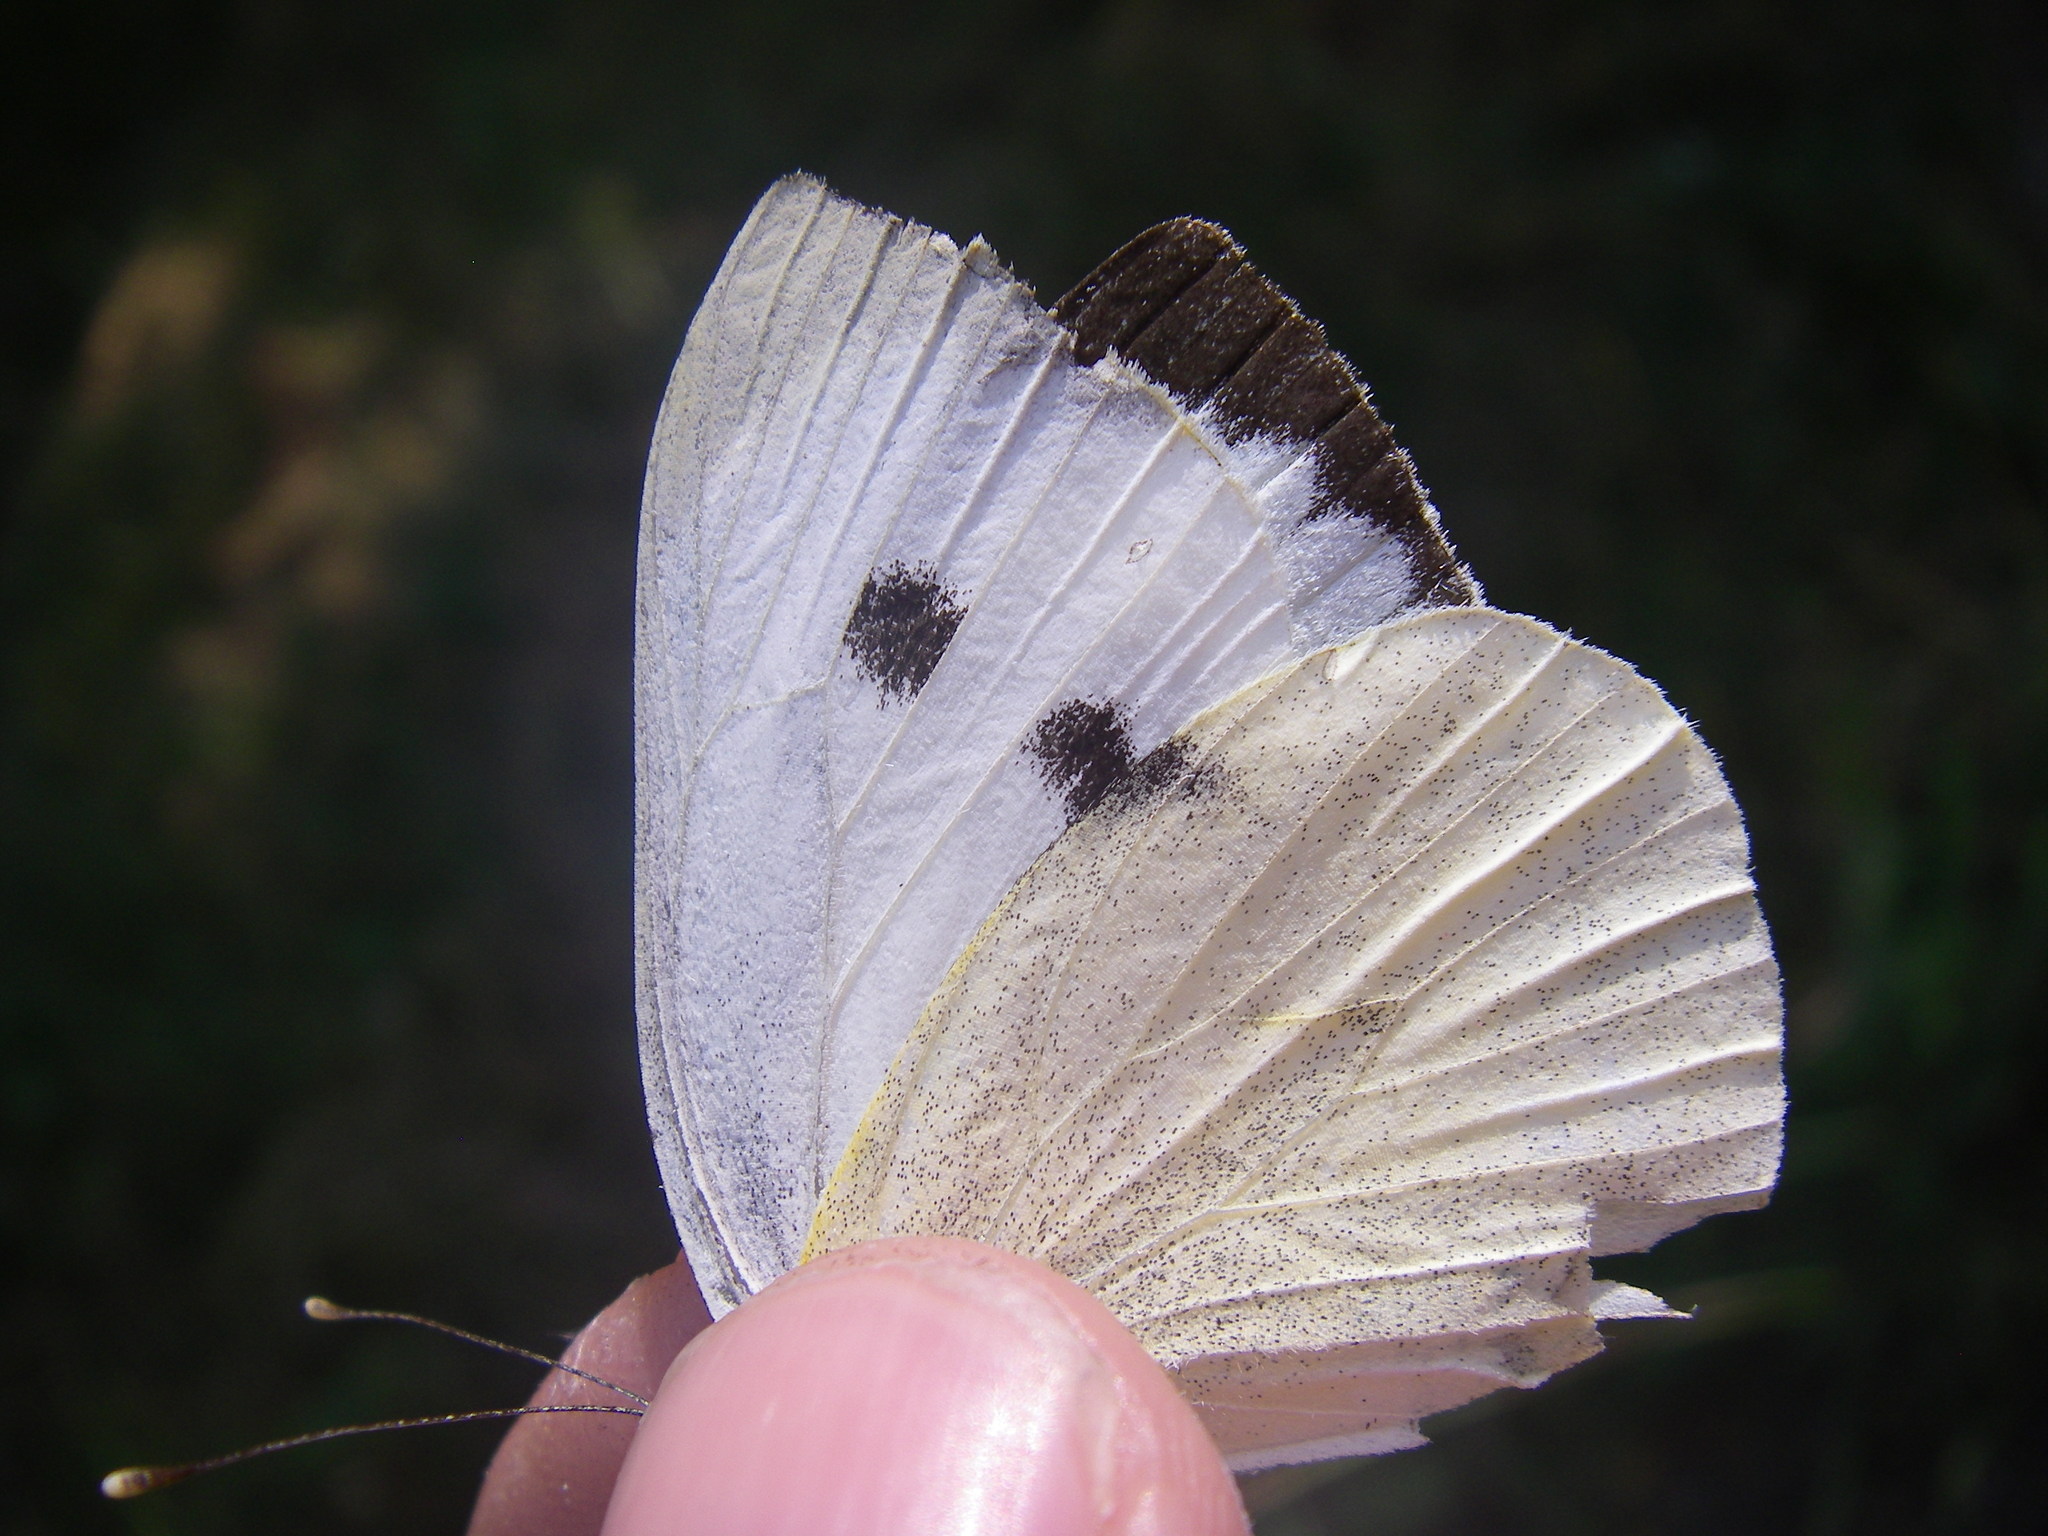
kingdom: Animalia
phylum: Arthropoda
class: Insecta
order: Lepidoptera
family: Pieridae
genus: Pieris
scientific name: Pieris brassicae
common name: Large white
